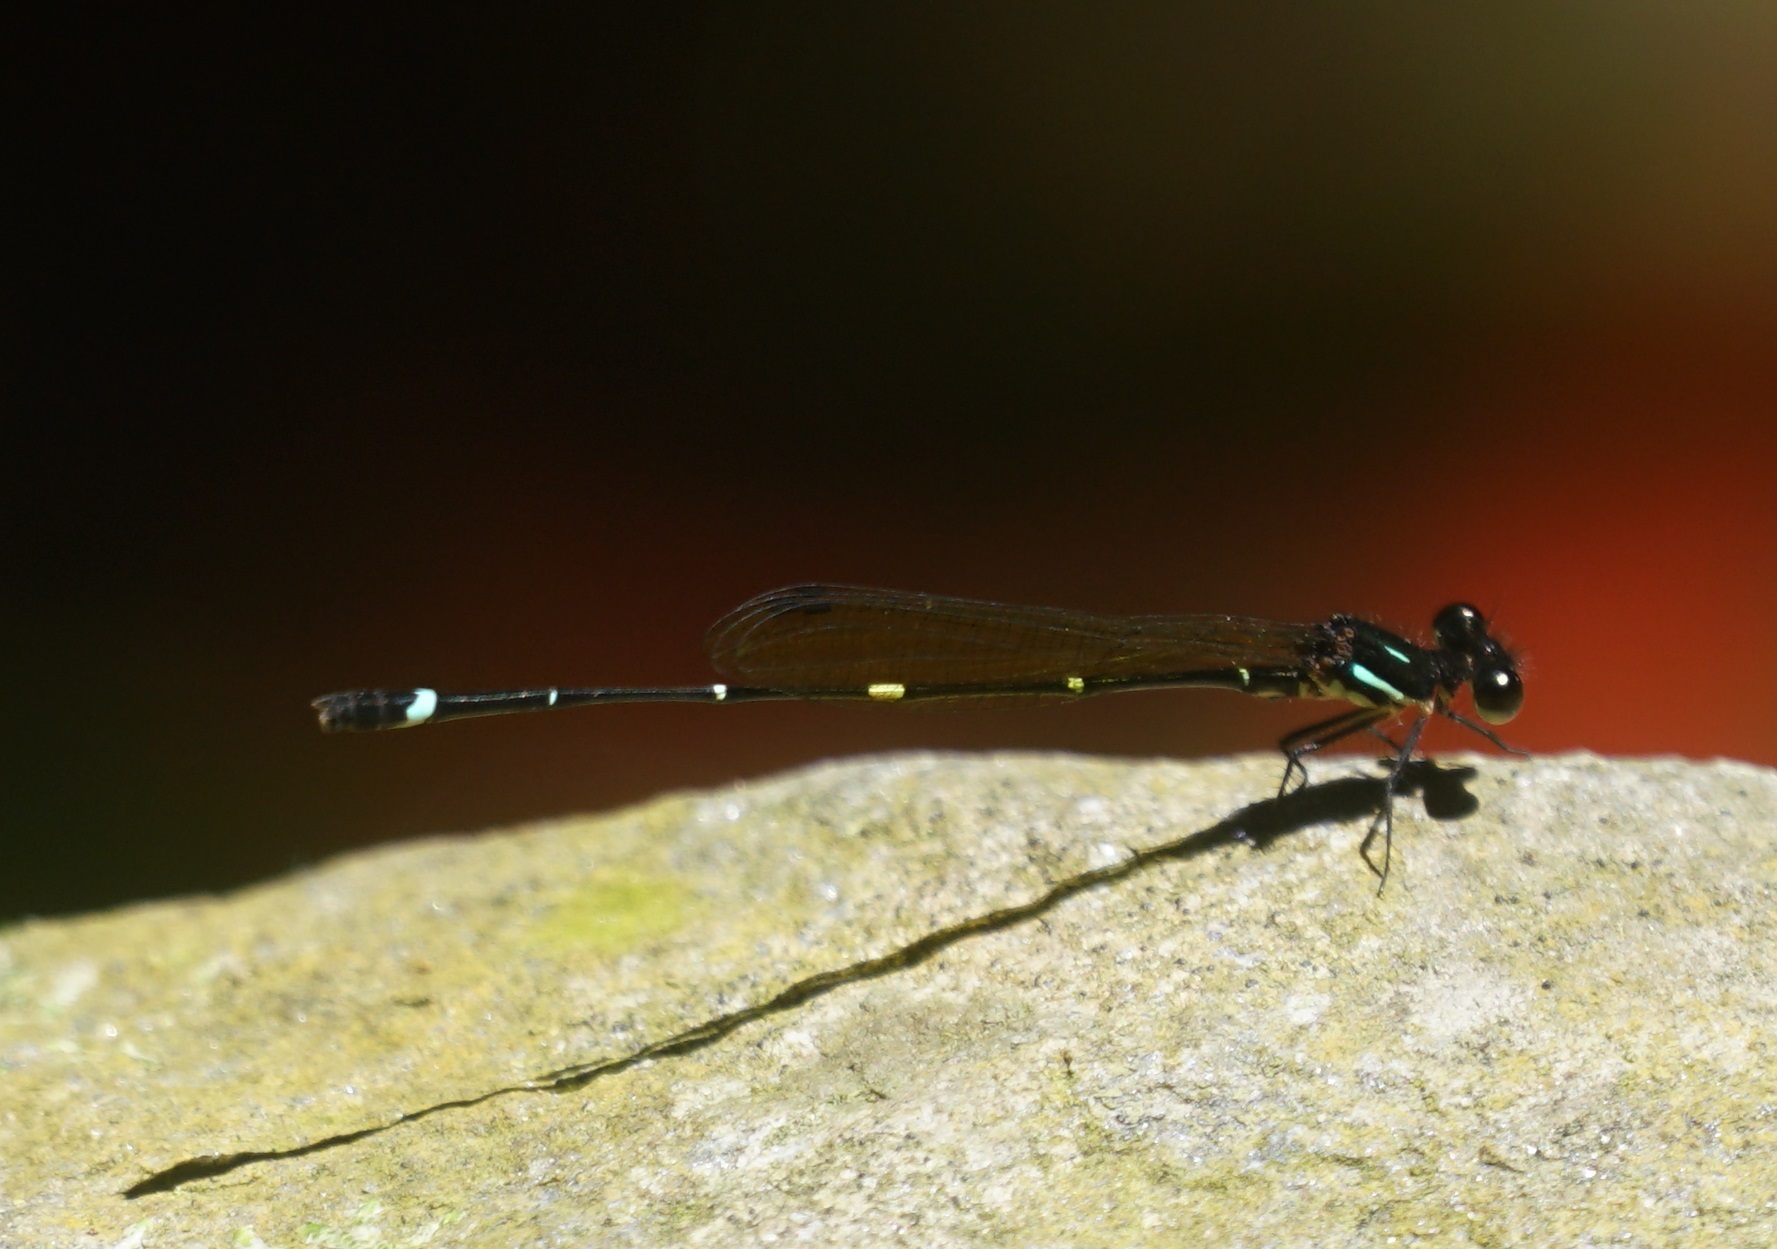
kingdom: Animalia
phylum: Arthropoda
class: Insecta
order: Odonata
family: Platycnemididae
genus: Nososticta
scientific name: Nososticta solitaria
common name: Fivespot threadtail
